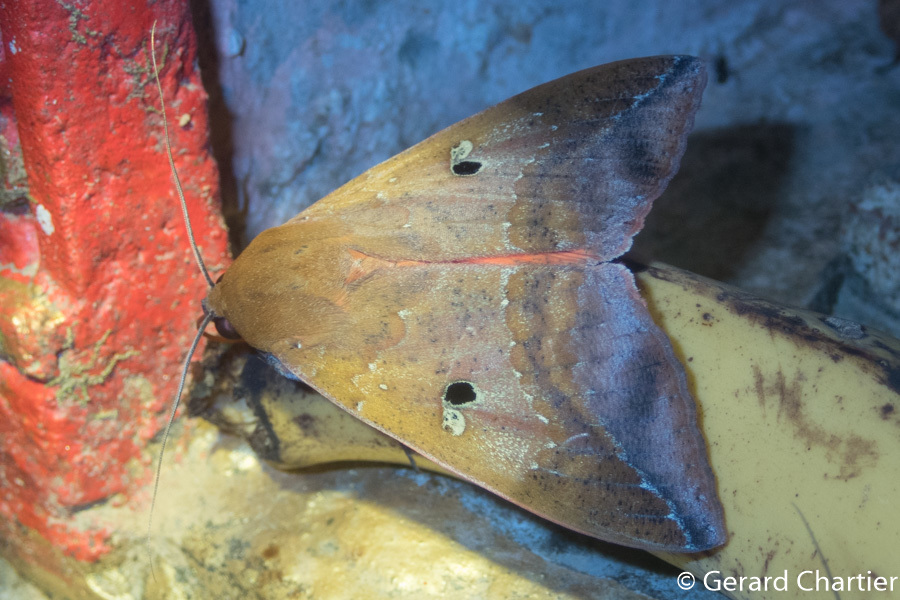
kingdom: Animalia
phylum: Arthropoda
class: Insecta
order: Lepidoptera
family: Erebidae
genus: Thyas
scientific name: Thyas honesta
